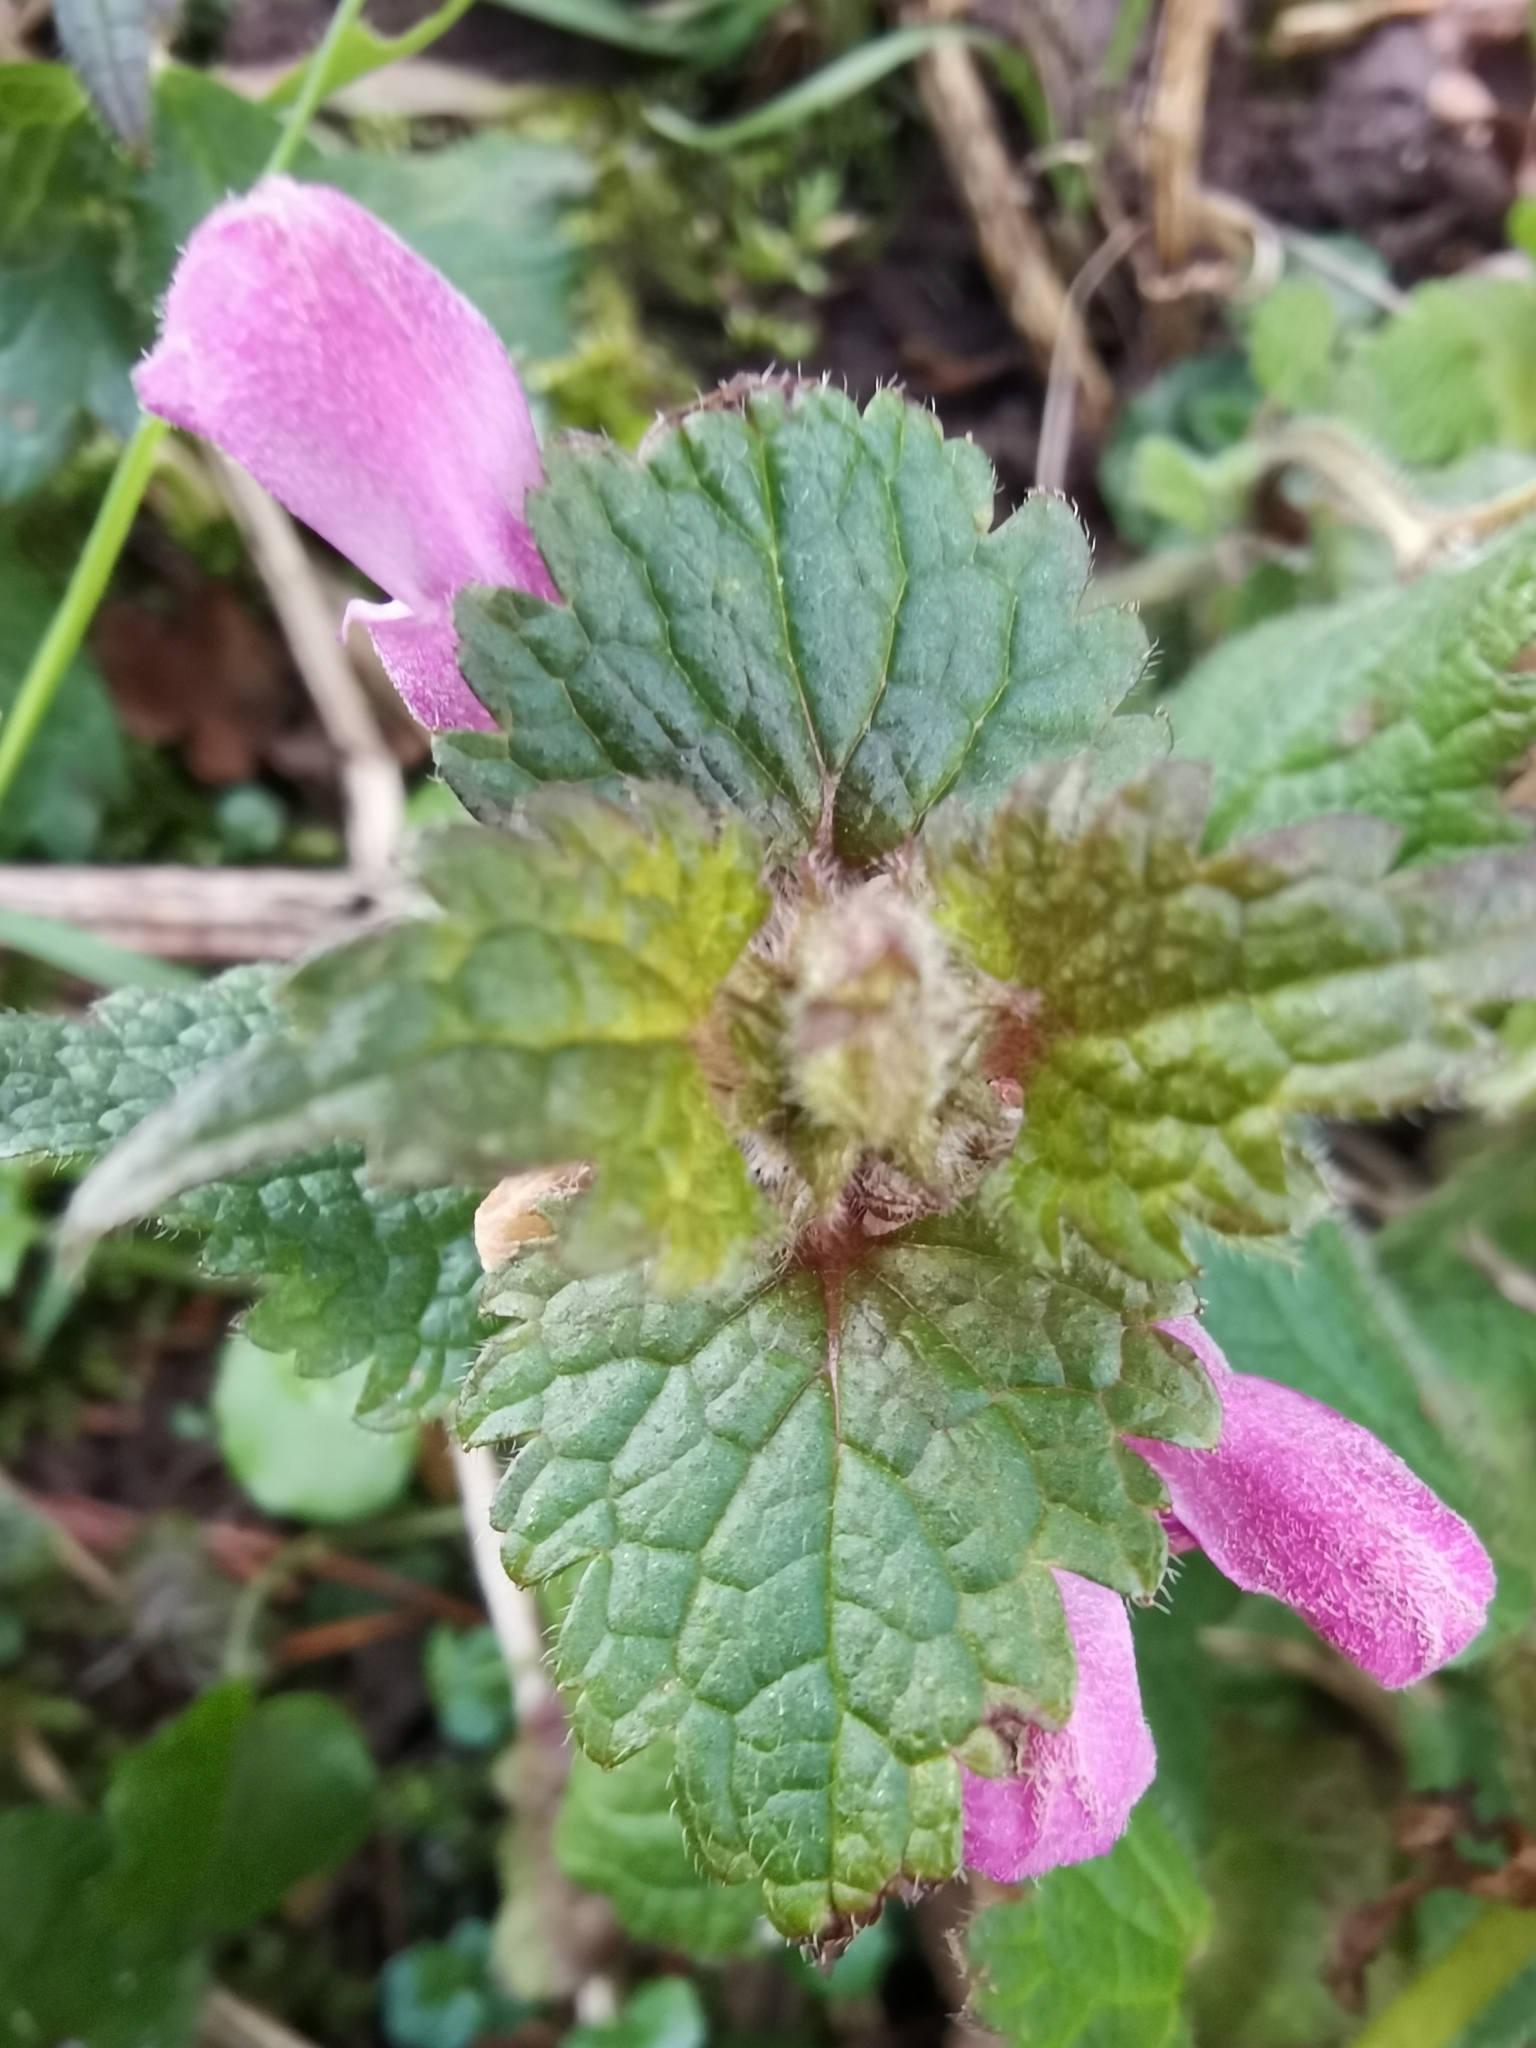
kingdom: Plantae
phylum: Tracheophyta
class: Magnoliopsida
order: Lamiales
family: Lamiaceae
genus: Lamium
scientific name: Lamium maculatum
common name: Spotted dead-nettle
